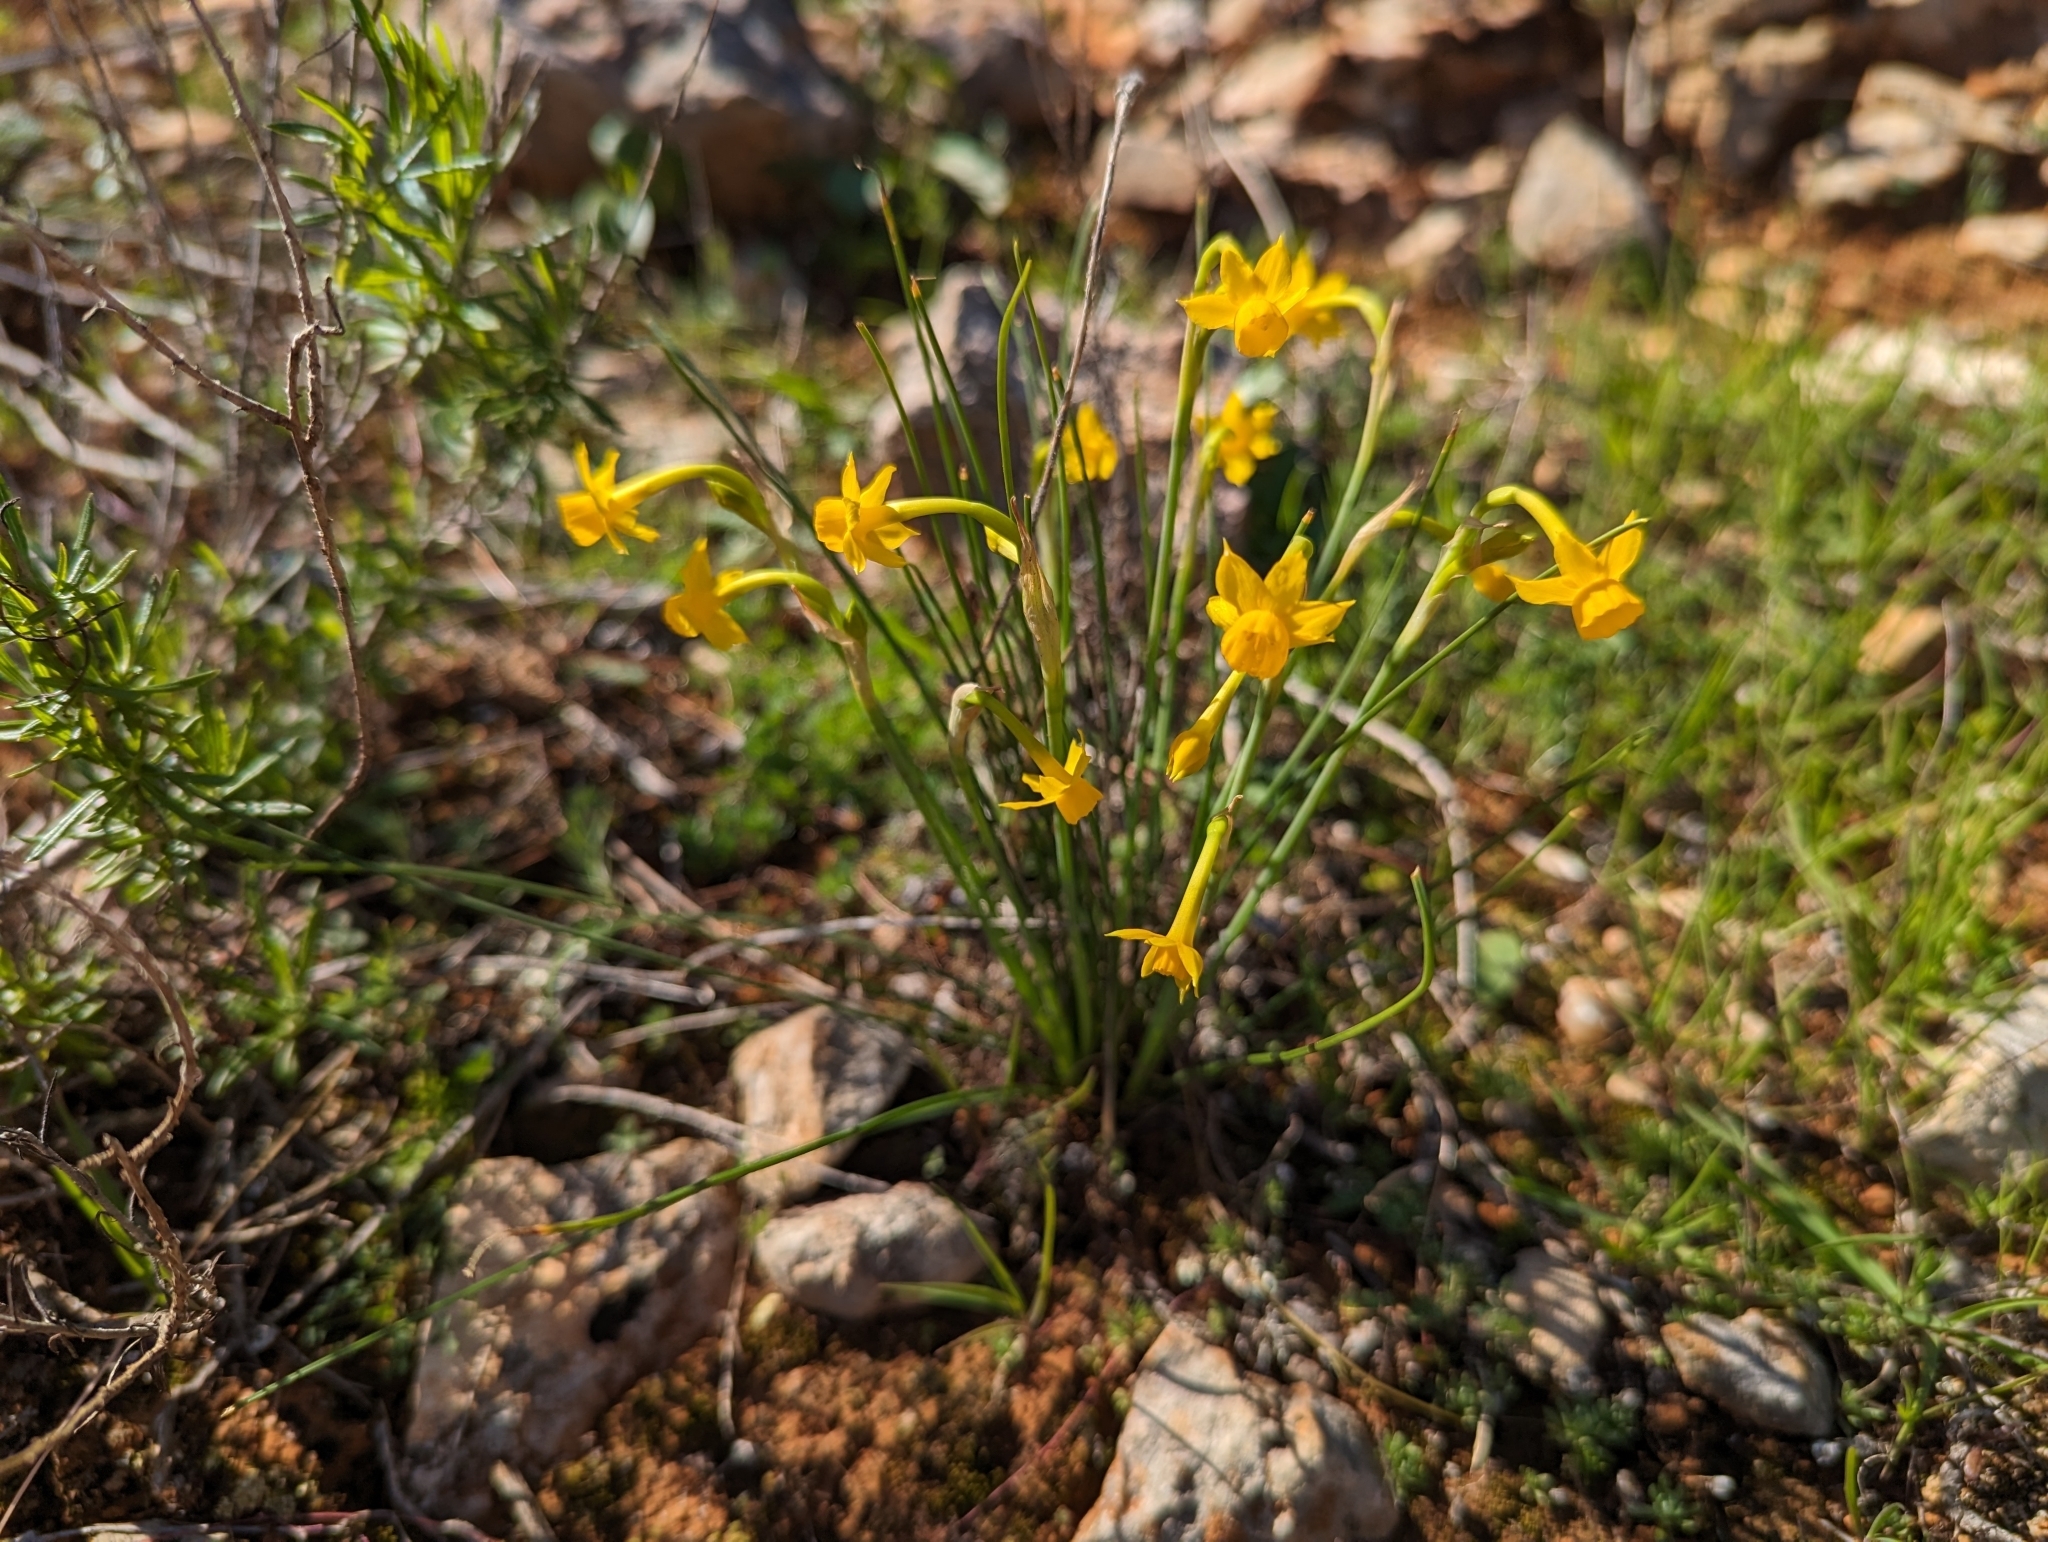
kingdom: Plantae
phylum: Tracheophyta
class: Liliopsida
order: Asparagales
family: Amaryllidaceae
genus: Narcissus
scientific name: Narcissus gaditanus
